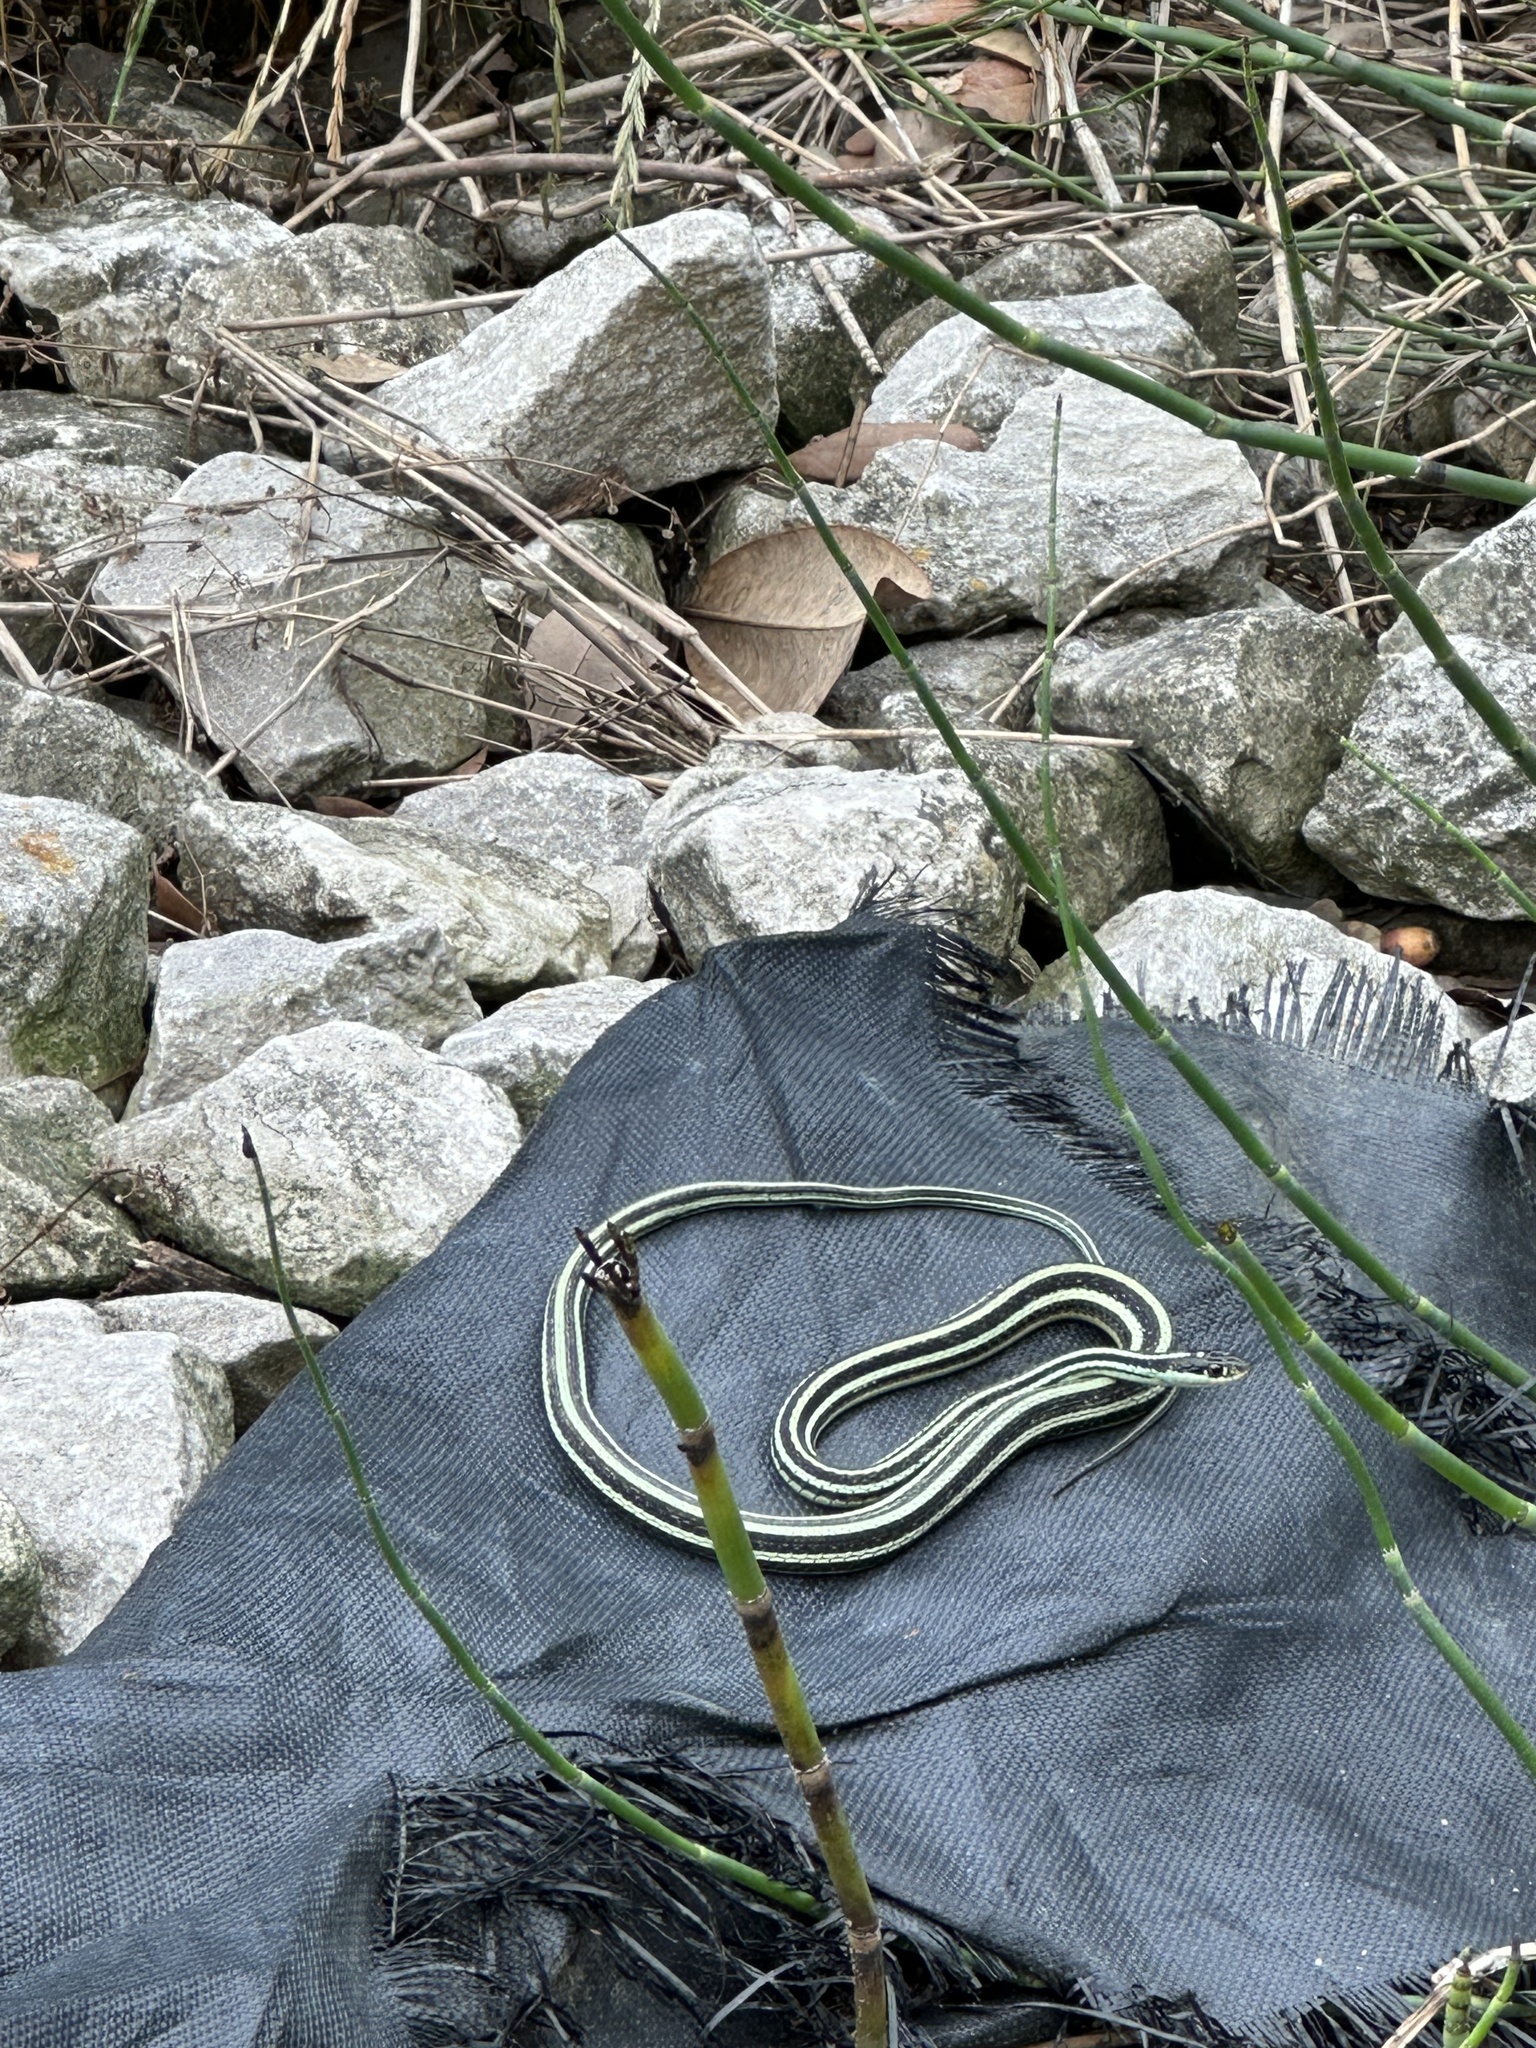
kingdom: Animalia
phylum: Chordata
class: Squamata
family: Colubridae
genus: Thamnophis
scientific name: Thamnophis proximus
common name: Western ribbon snake
